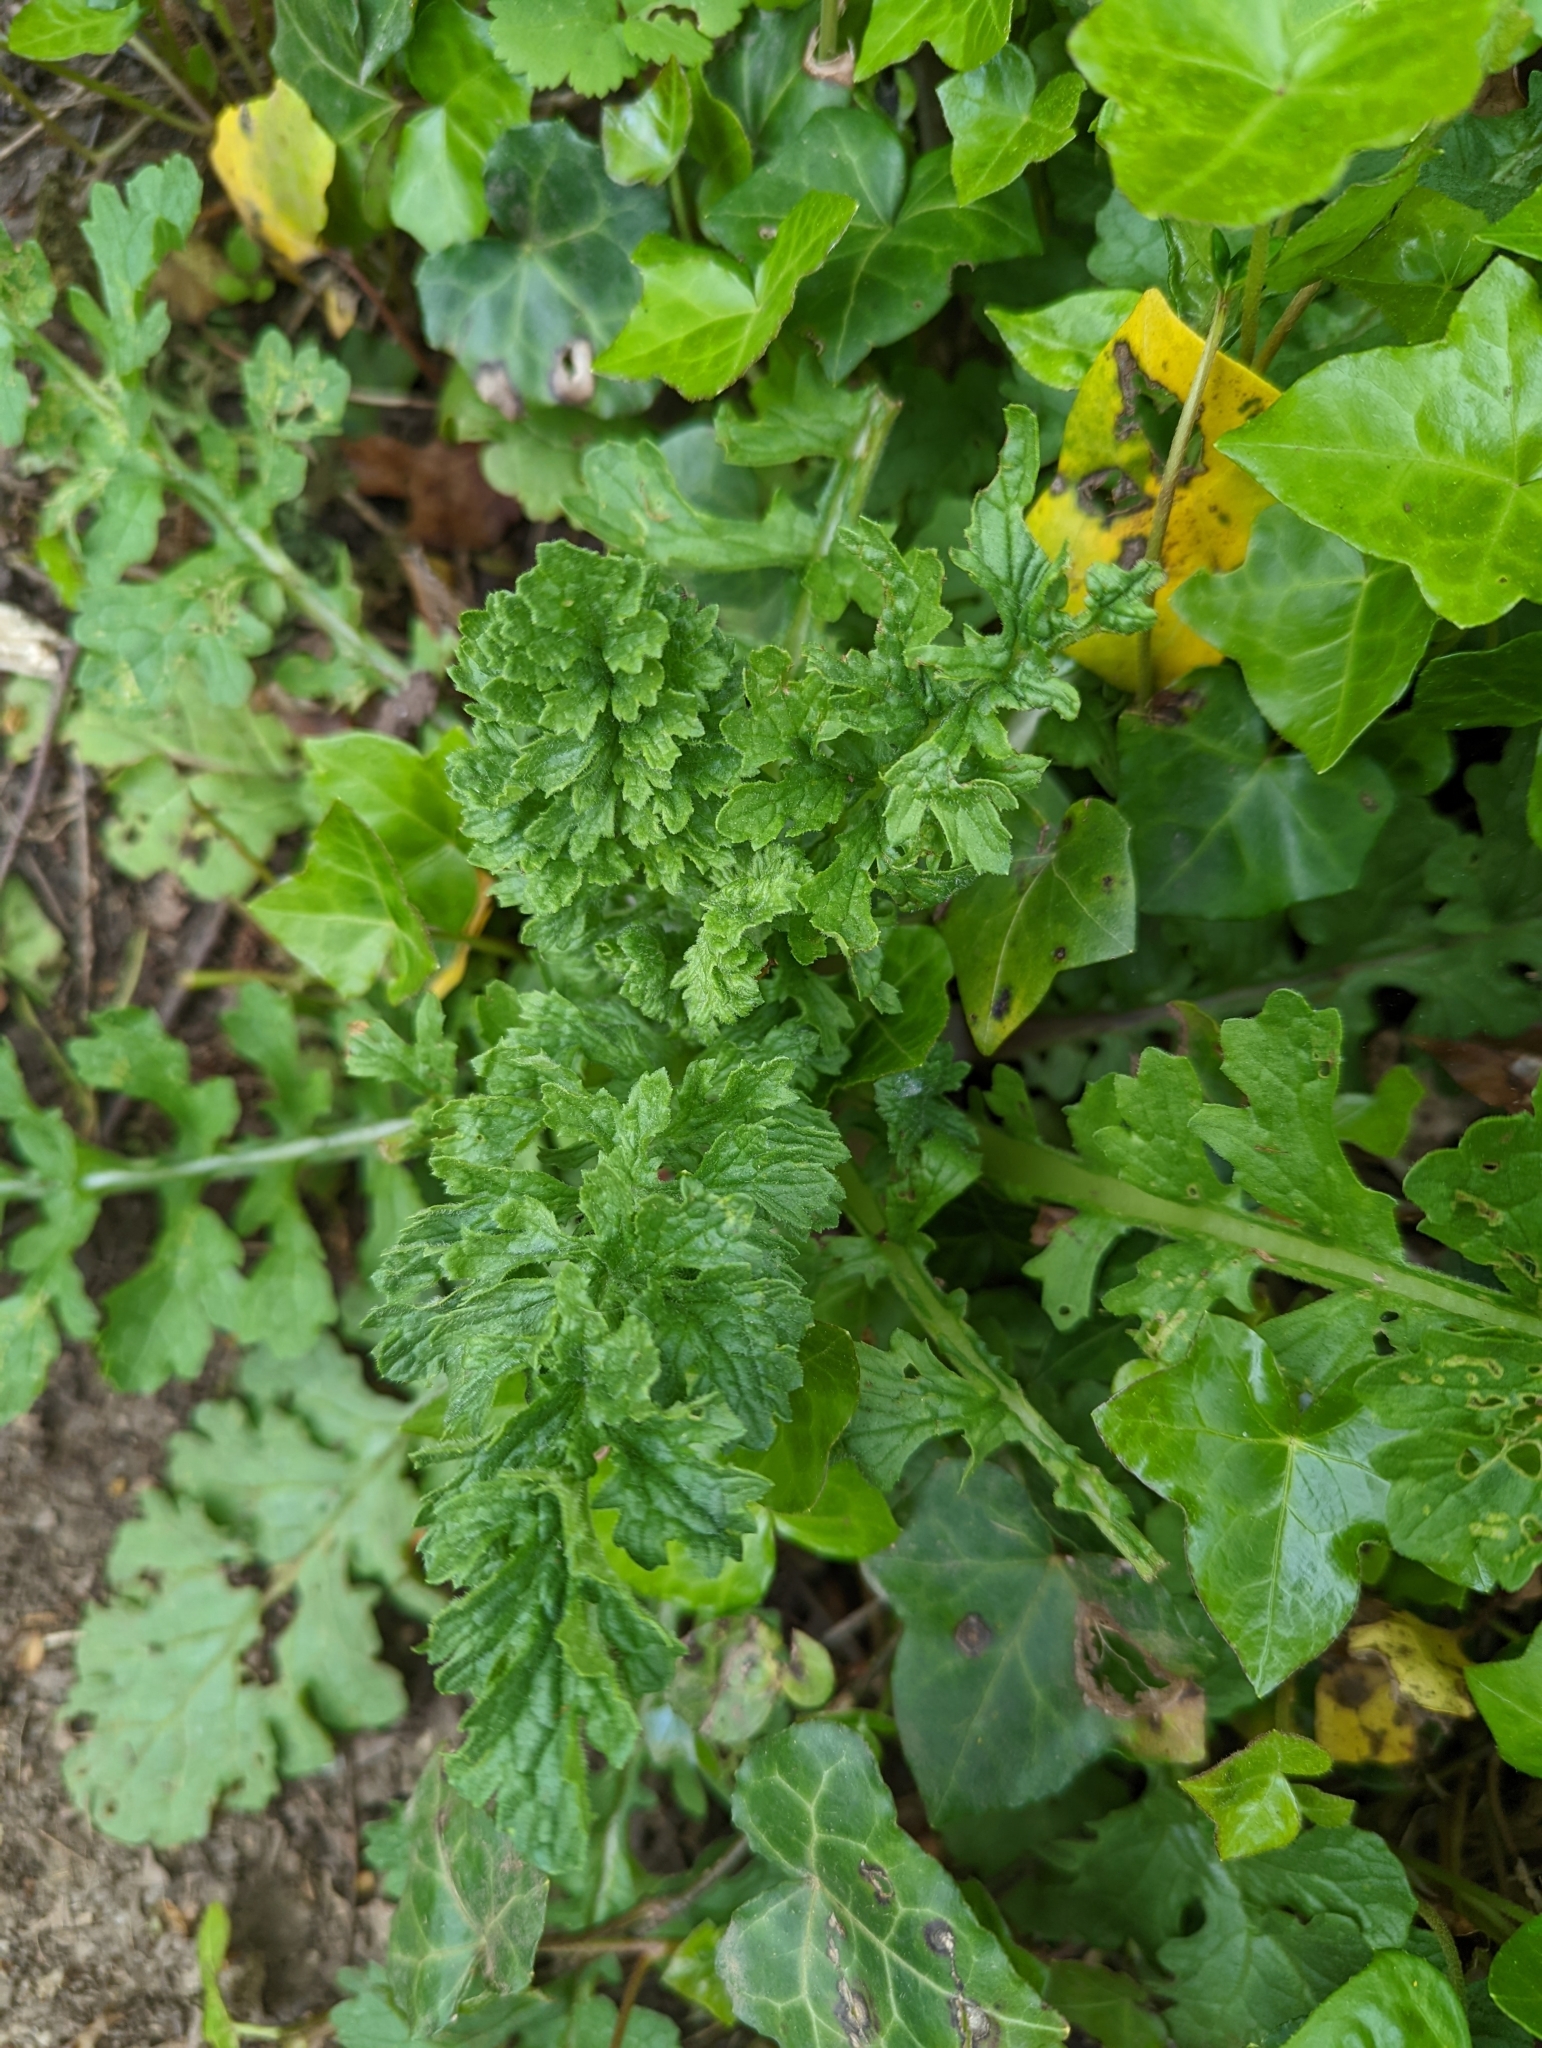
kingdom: Plantae
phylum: Tracheophyta
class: Magnoliopsida
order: Asterales
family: Asteraceae
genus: Jacobaea
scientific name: Jacobaea vulgaris
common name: Stinking willie
